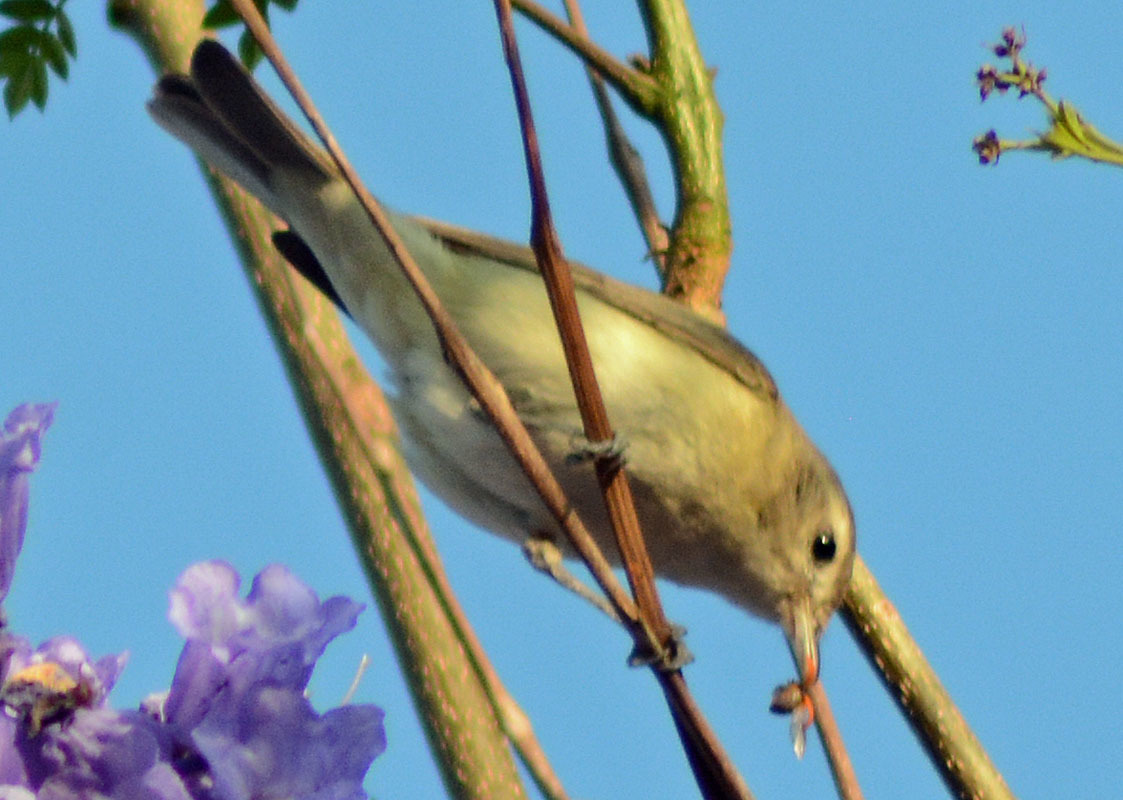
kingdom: Animalia
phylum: Chordata
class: Aves
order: Passeriformes
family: Vireonidae
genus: Vireo
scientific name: Vireo gilvus
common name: Warbling vireo
